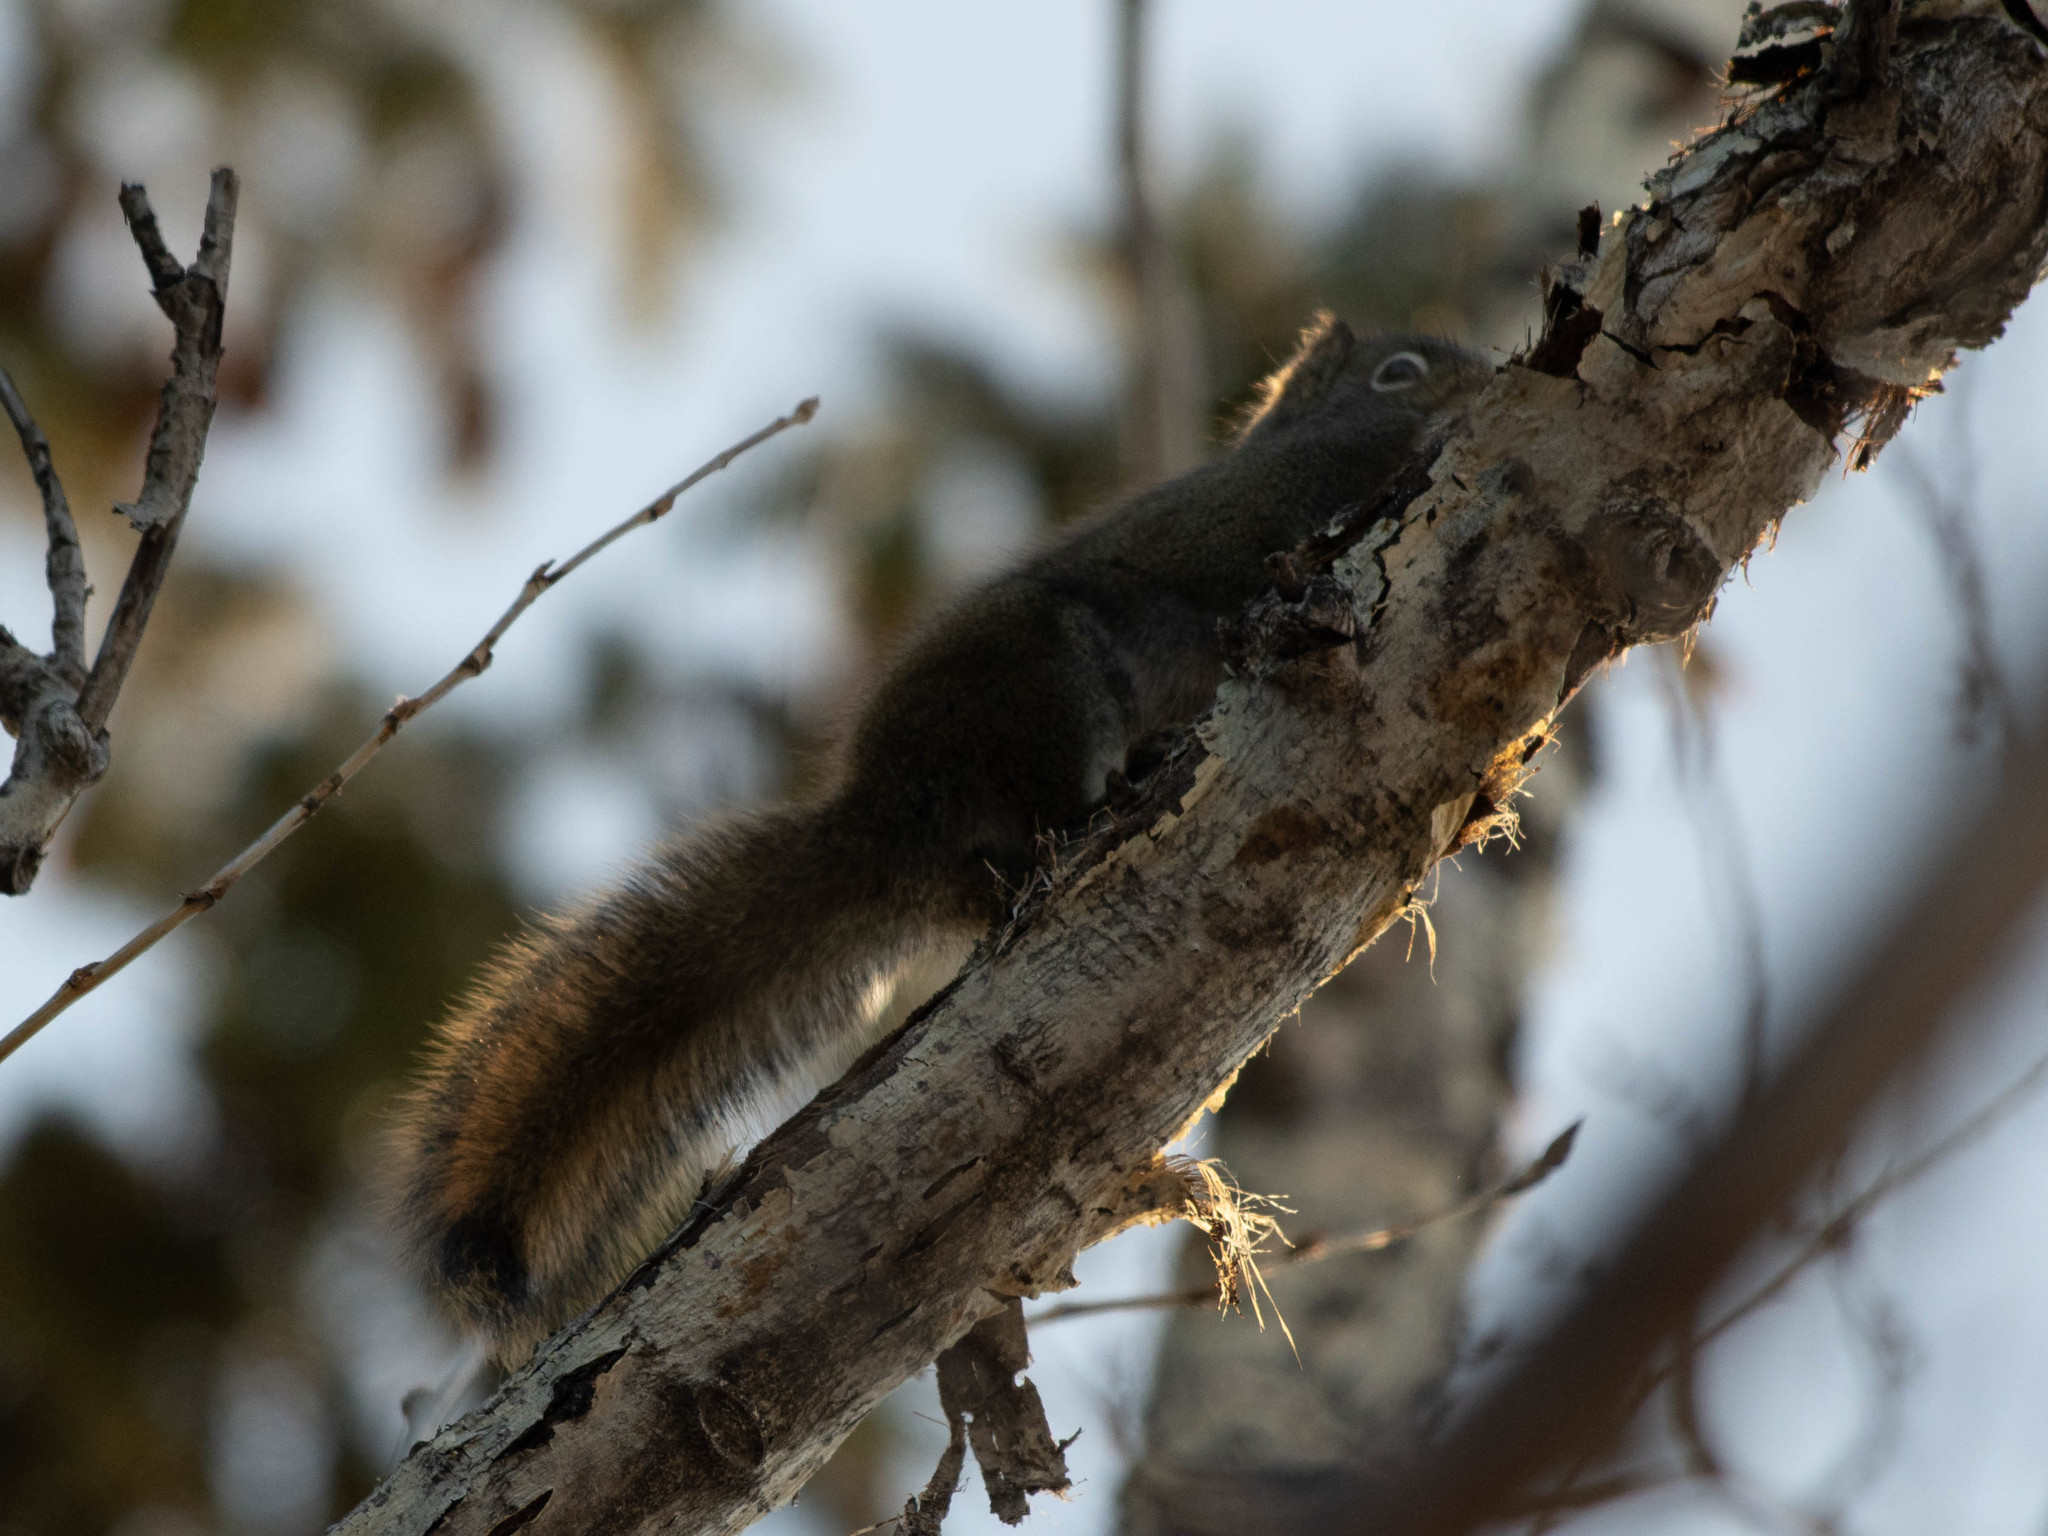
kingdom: Animalia
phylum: Chordata
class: Mammalia
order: Rodentia
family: Sciuridae
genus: Tamiasciurus
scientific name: Tamiasciurus hudsonicus
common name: Red squirrel
